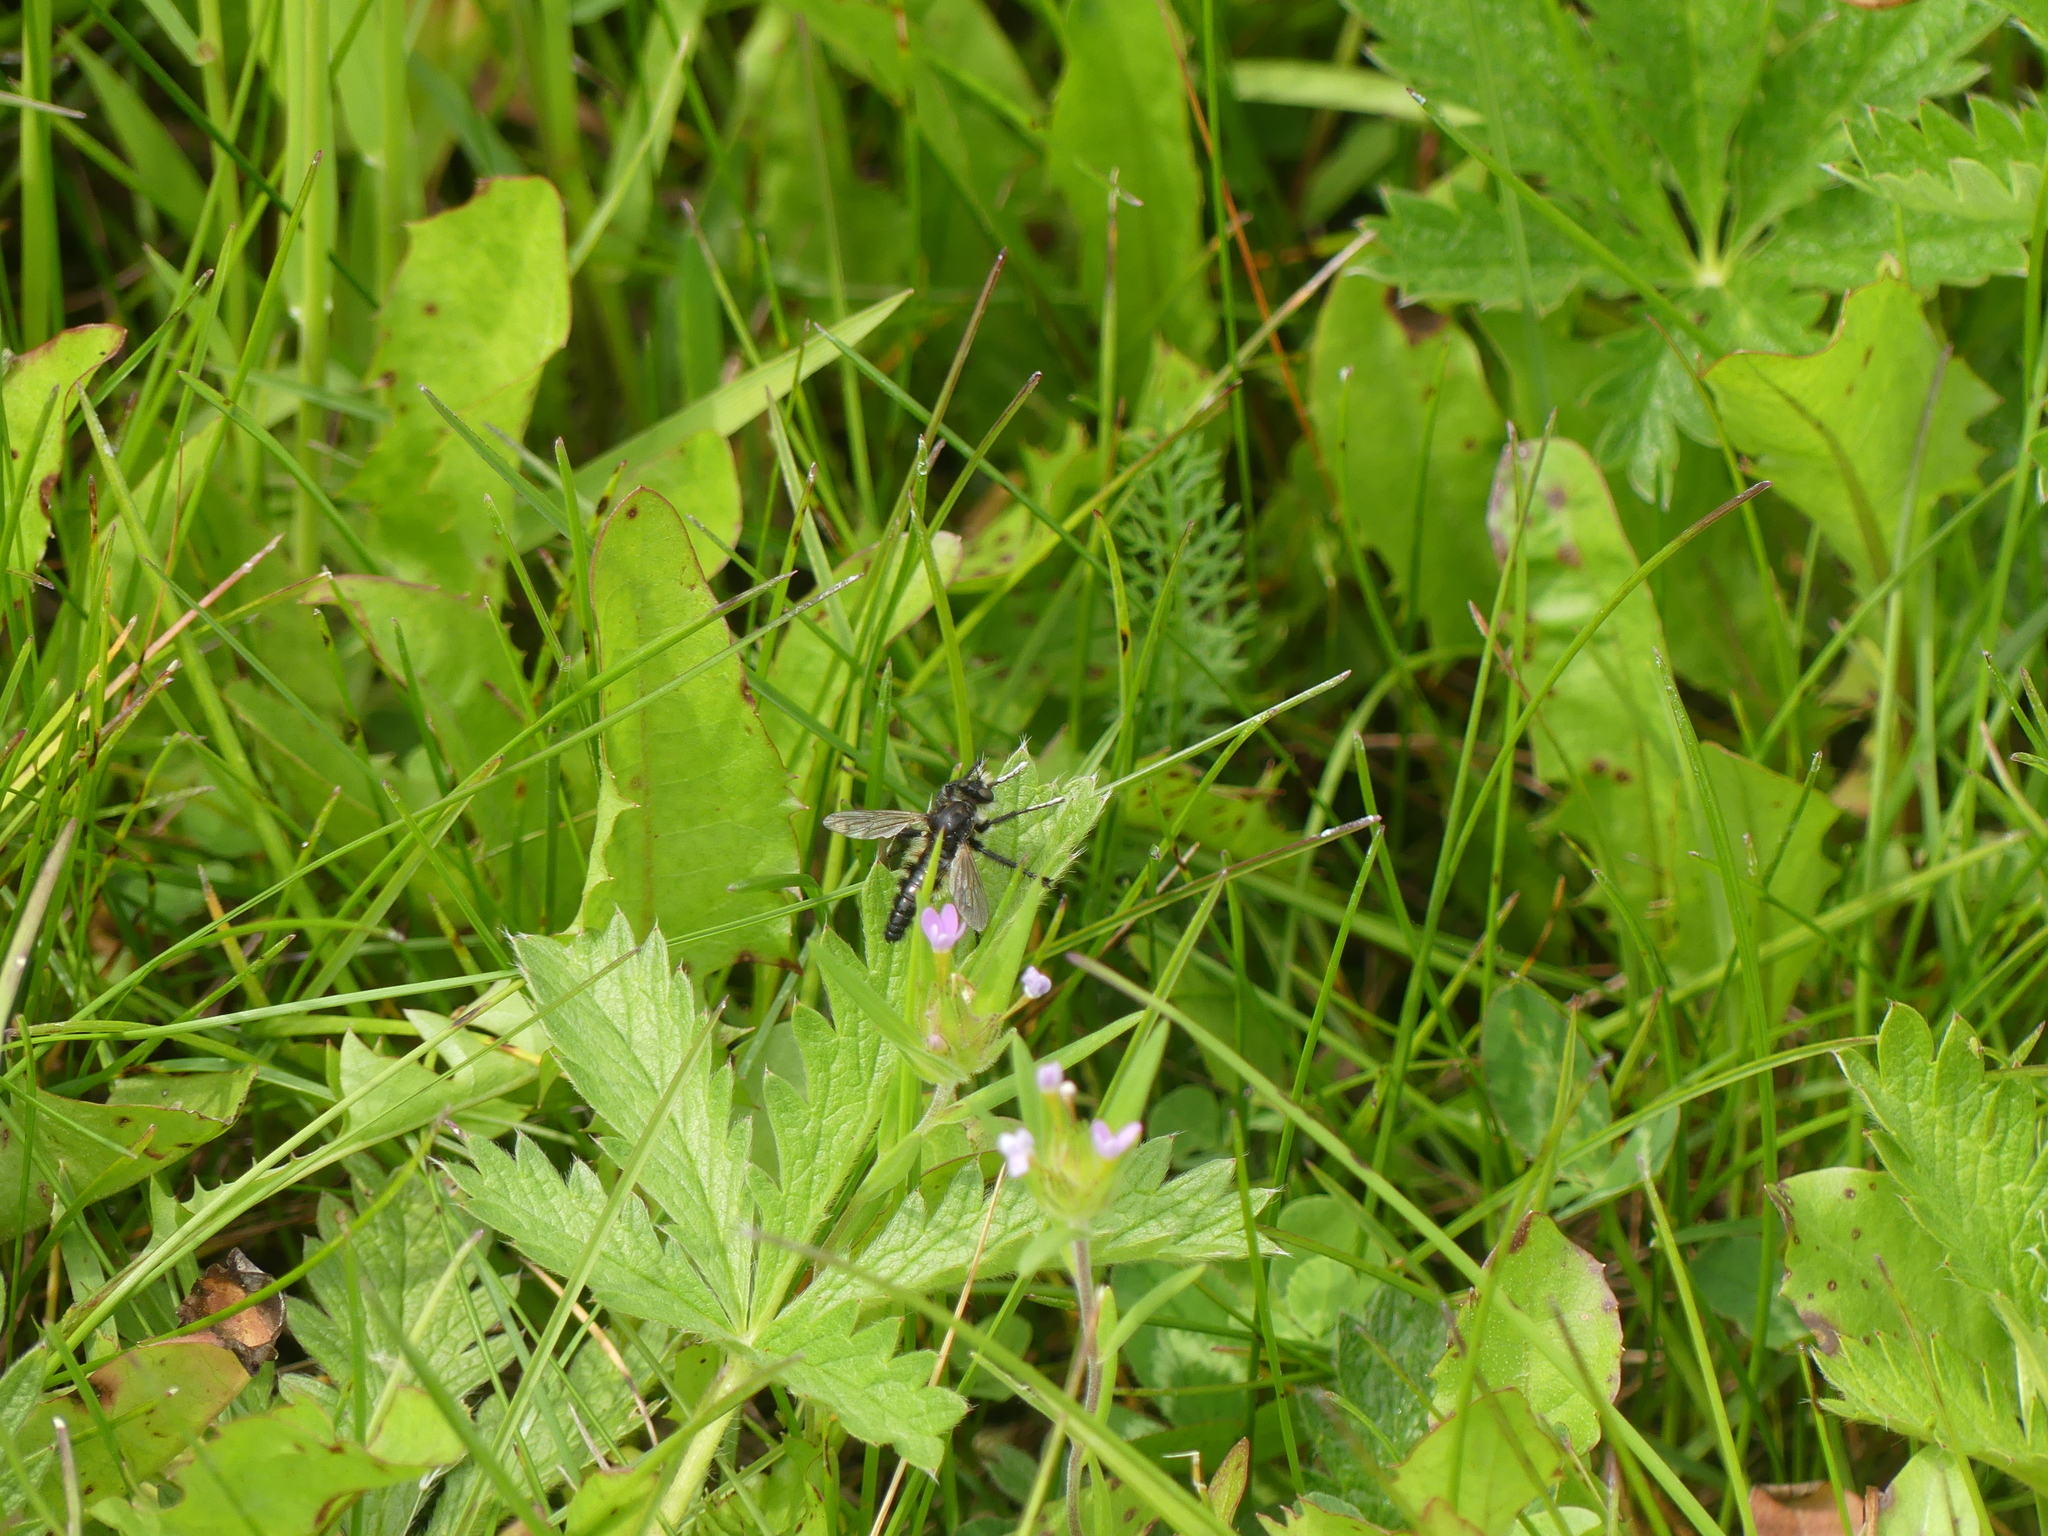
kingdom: Animalia
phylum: Arthropoda
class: Insecta
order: Diptera
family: Asilidae
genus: Cyrtopogon
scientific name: Cyrtopogon willistoni
